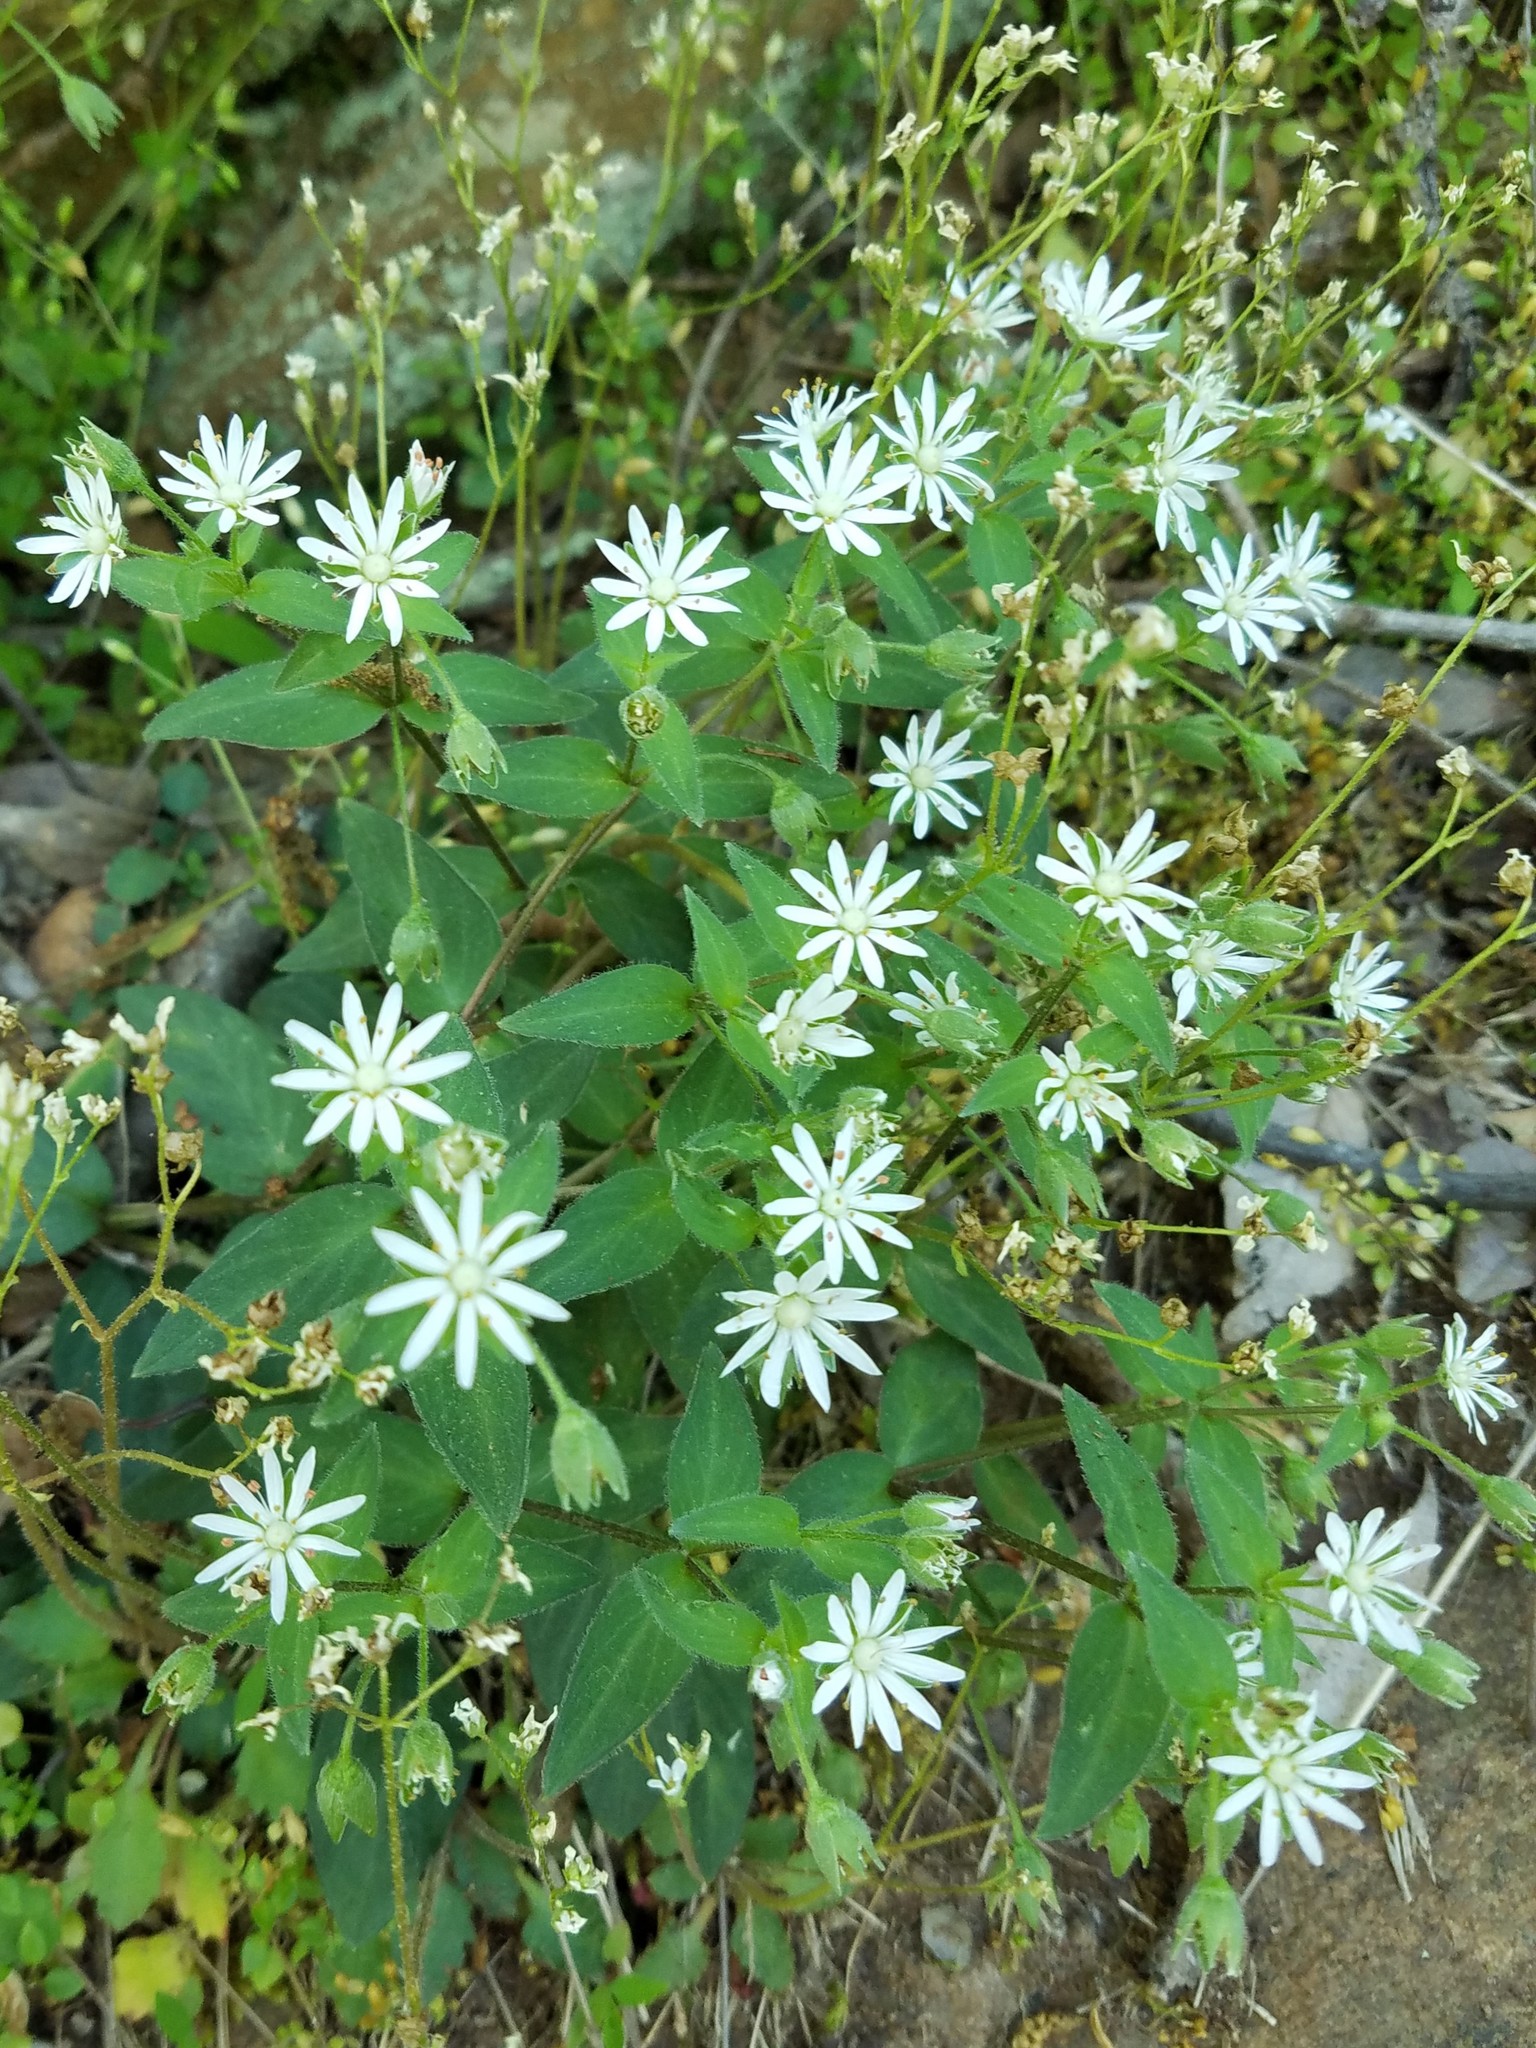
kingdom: Plantae
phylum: Tracheophyta
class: Magnoliopsida
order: Caryophyllales
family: Caryophyllaceae
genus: Stellaria
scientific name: Stellaria pubera
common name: Star chickweed
